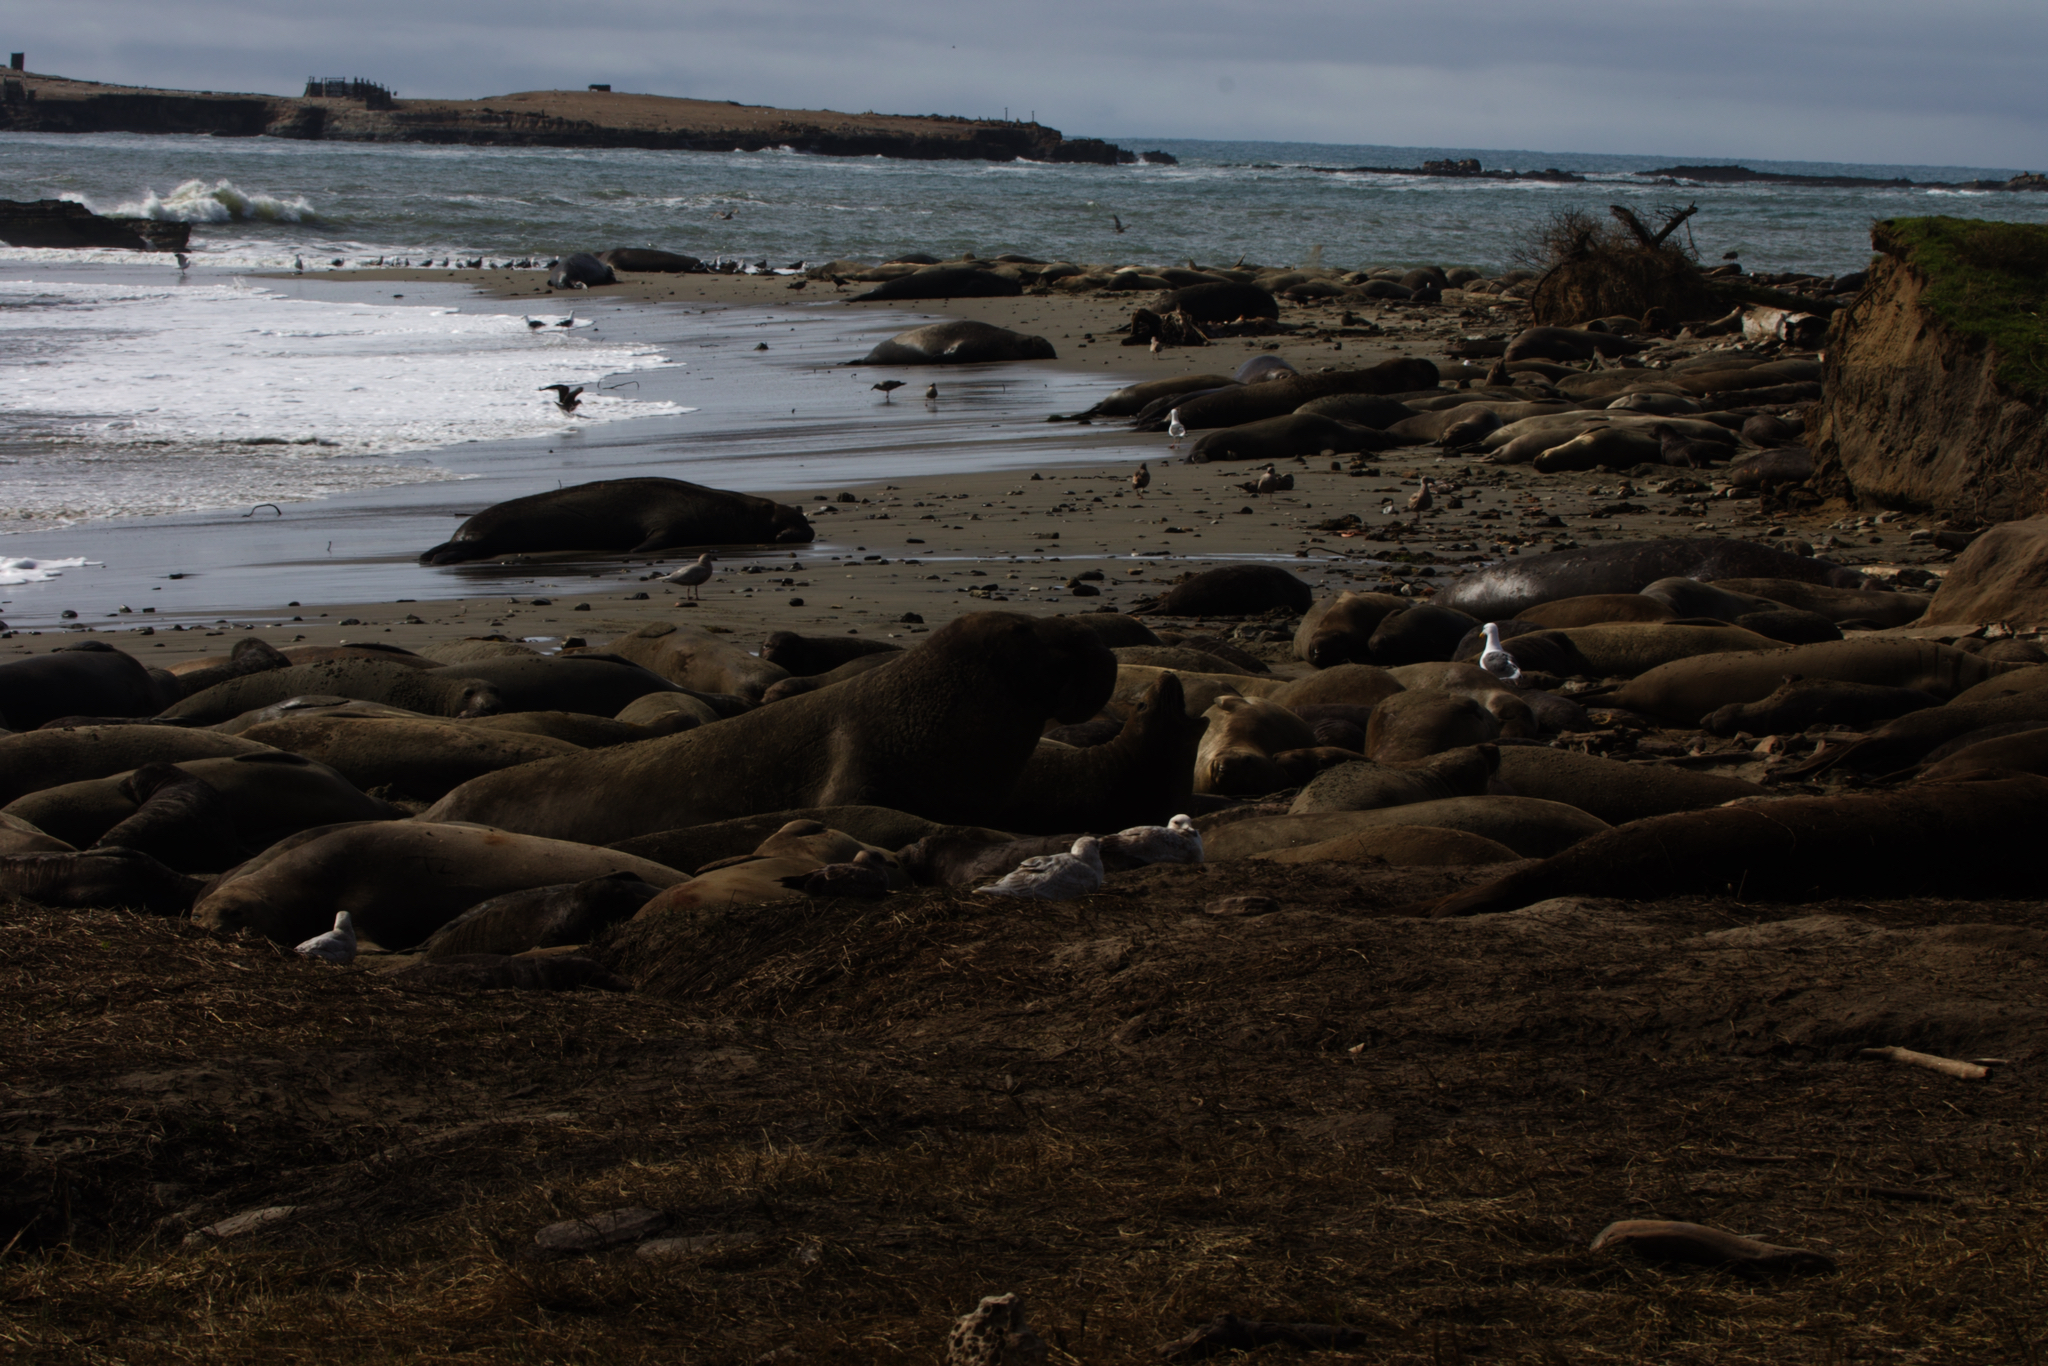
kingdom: Animalia
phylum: Chordata
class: Mammalia
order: Carnivora
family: Phocidae
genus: Mirounga
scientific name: Mirounga angustirostris
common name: Northern elephant seal
